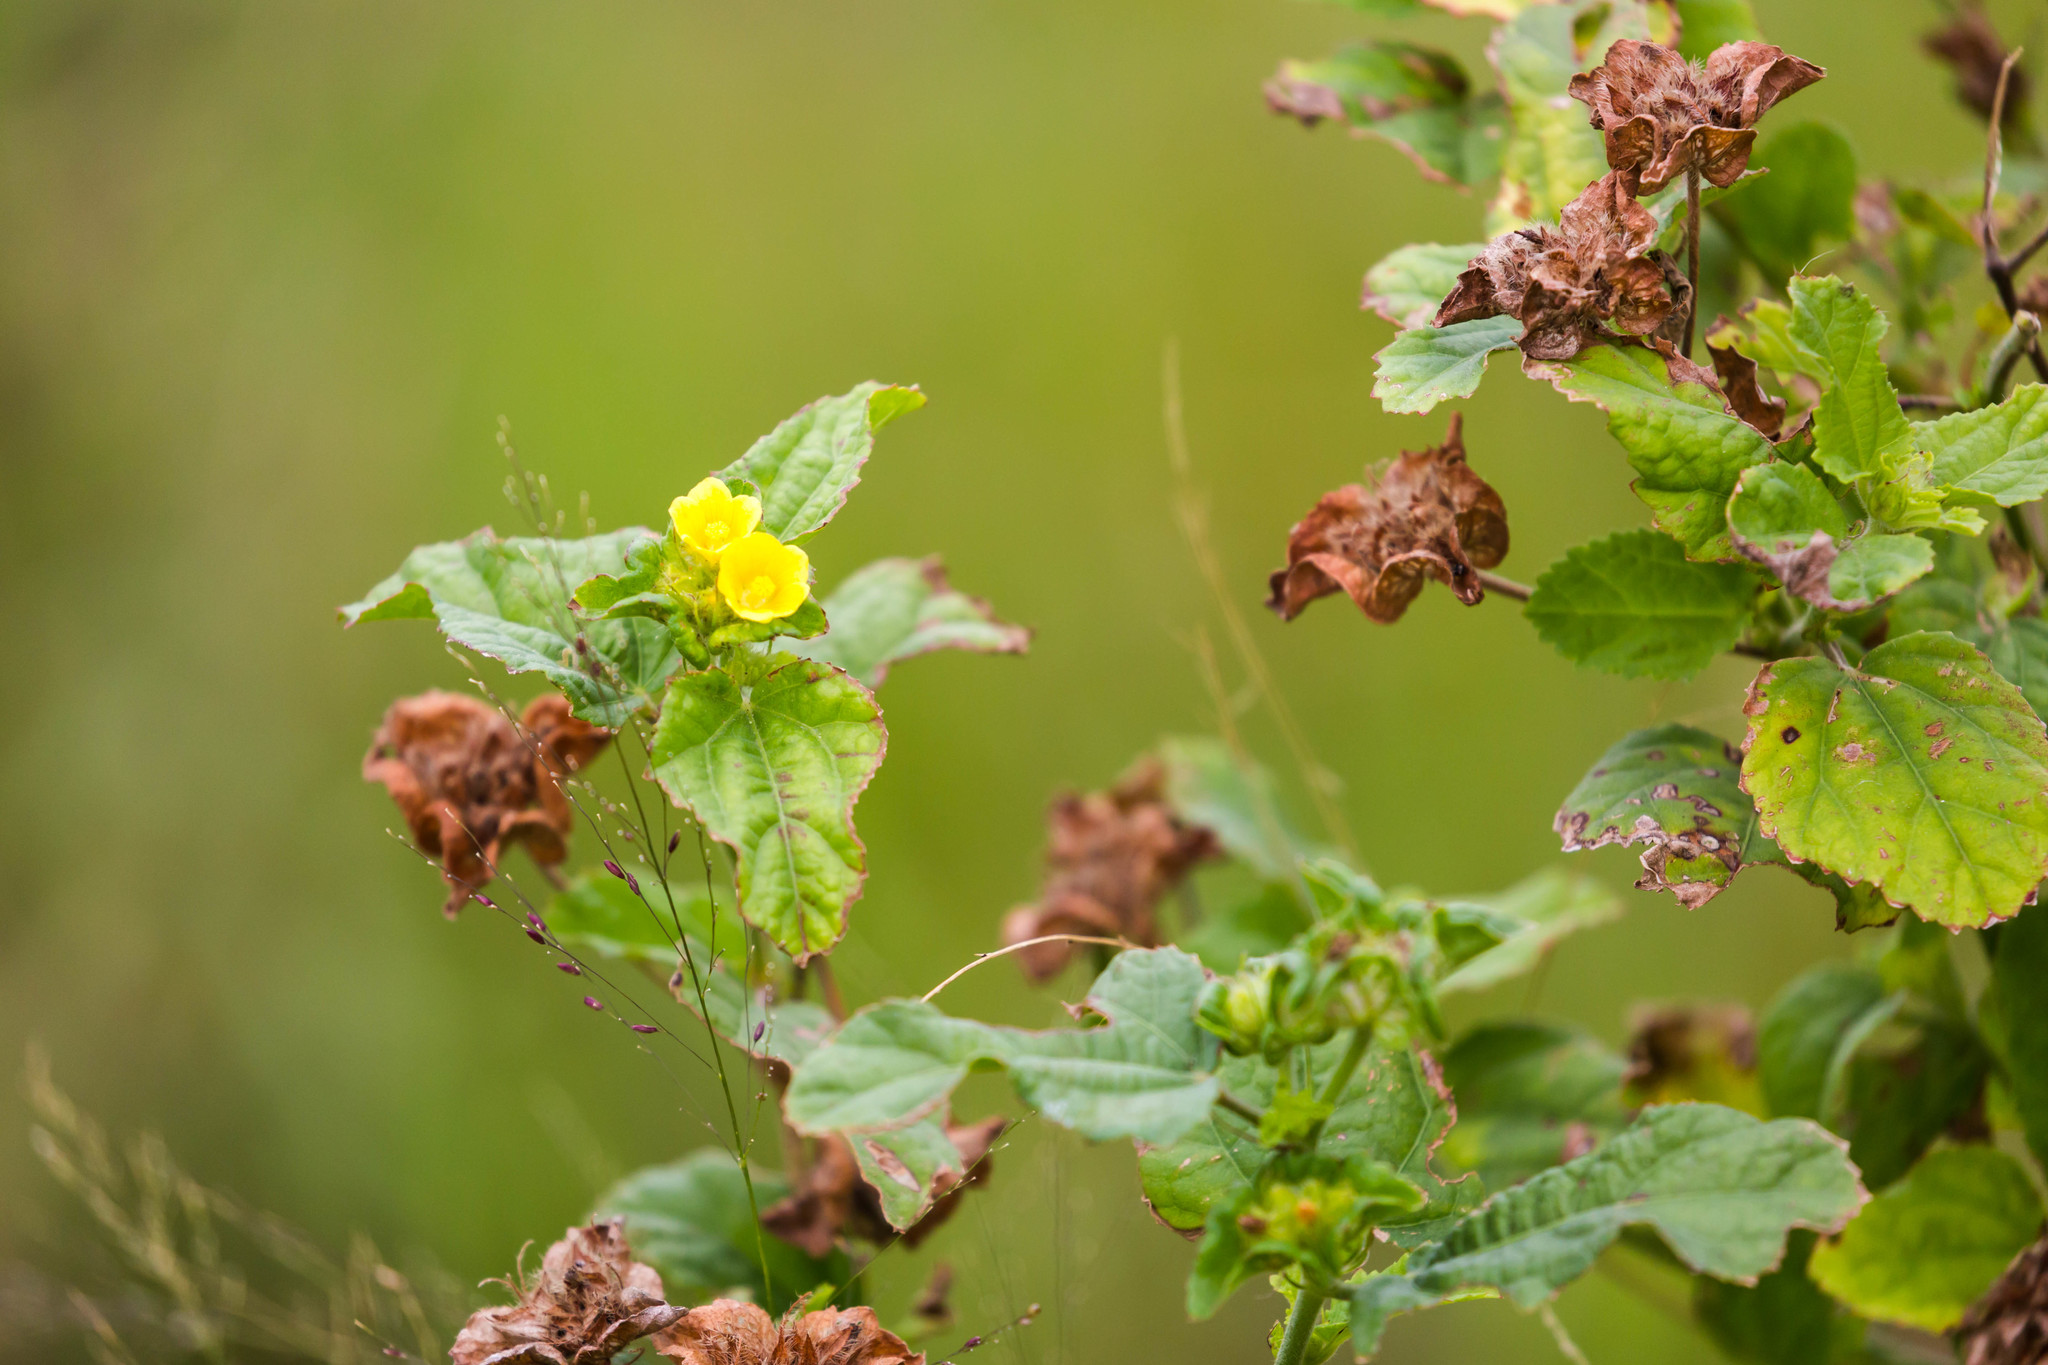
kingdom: Plantae
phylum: Tracheophyta
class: Magnoliopsida
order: Malvales
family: Malvaceae
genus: Malachra
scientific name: Malachra capitata
